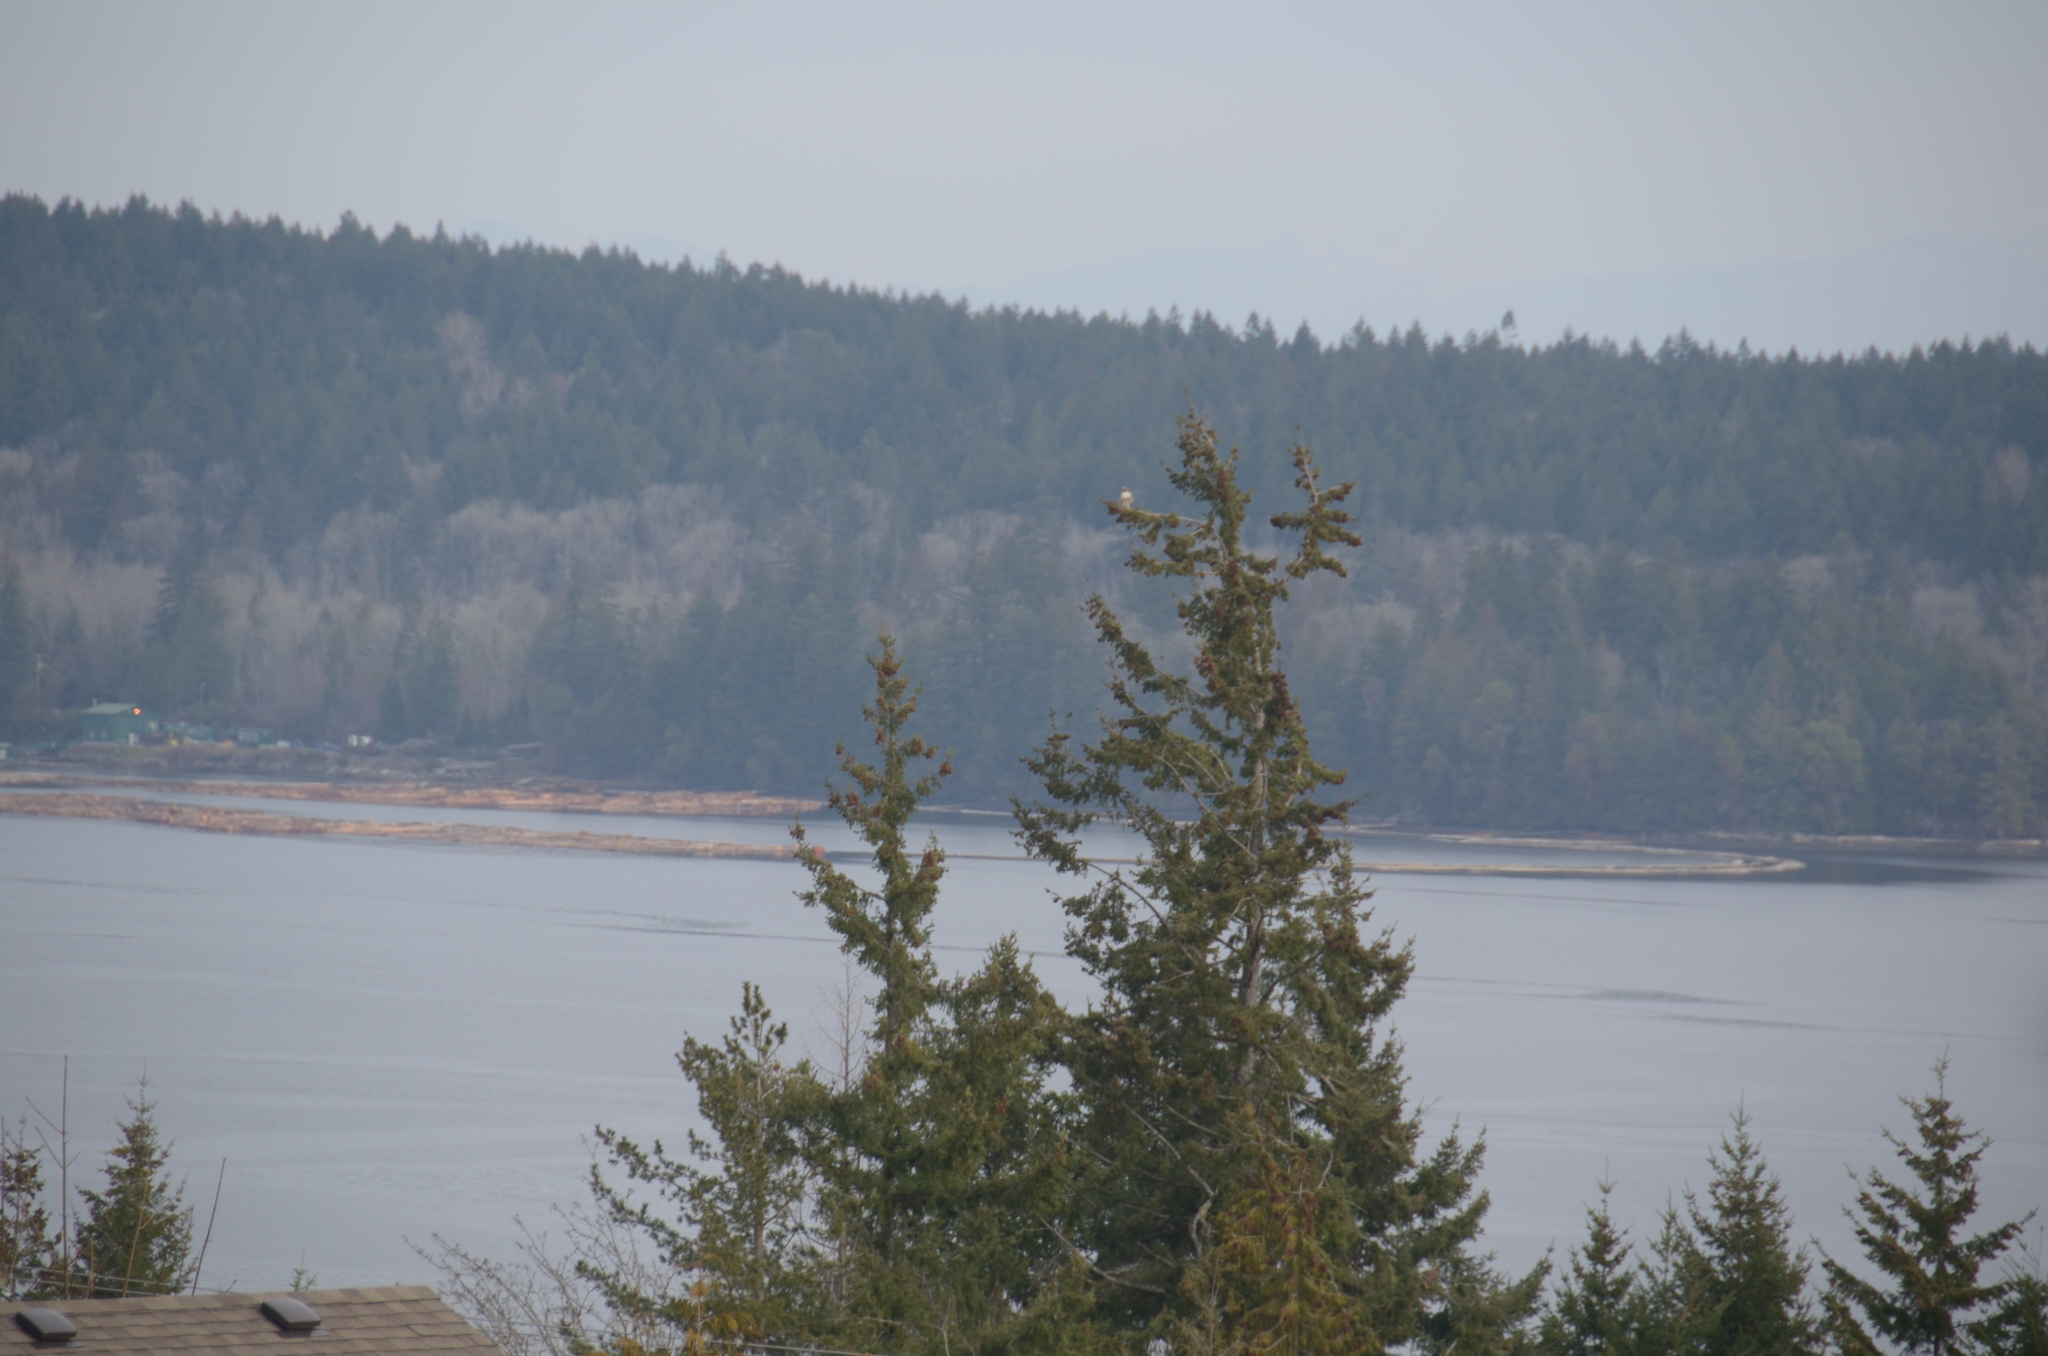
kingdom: Animalia
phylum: Chordata
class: Aves
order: Accipitriformes
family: Accipitridae
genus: Buteo
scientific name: Buteo jamaicensis
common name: Red-tailed hawk
